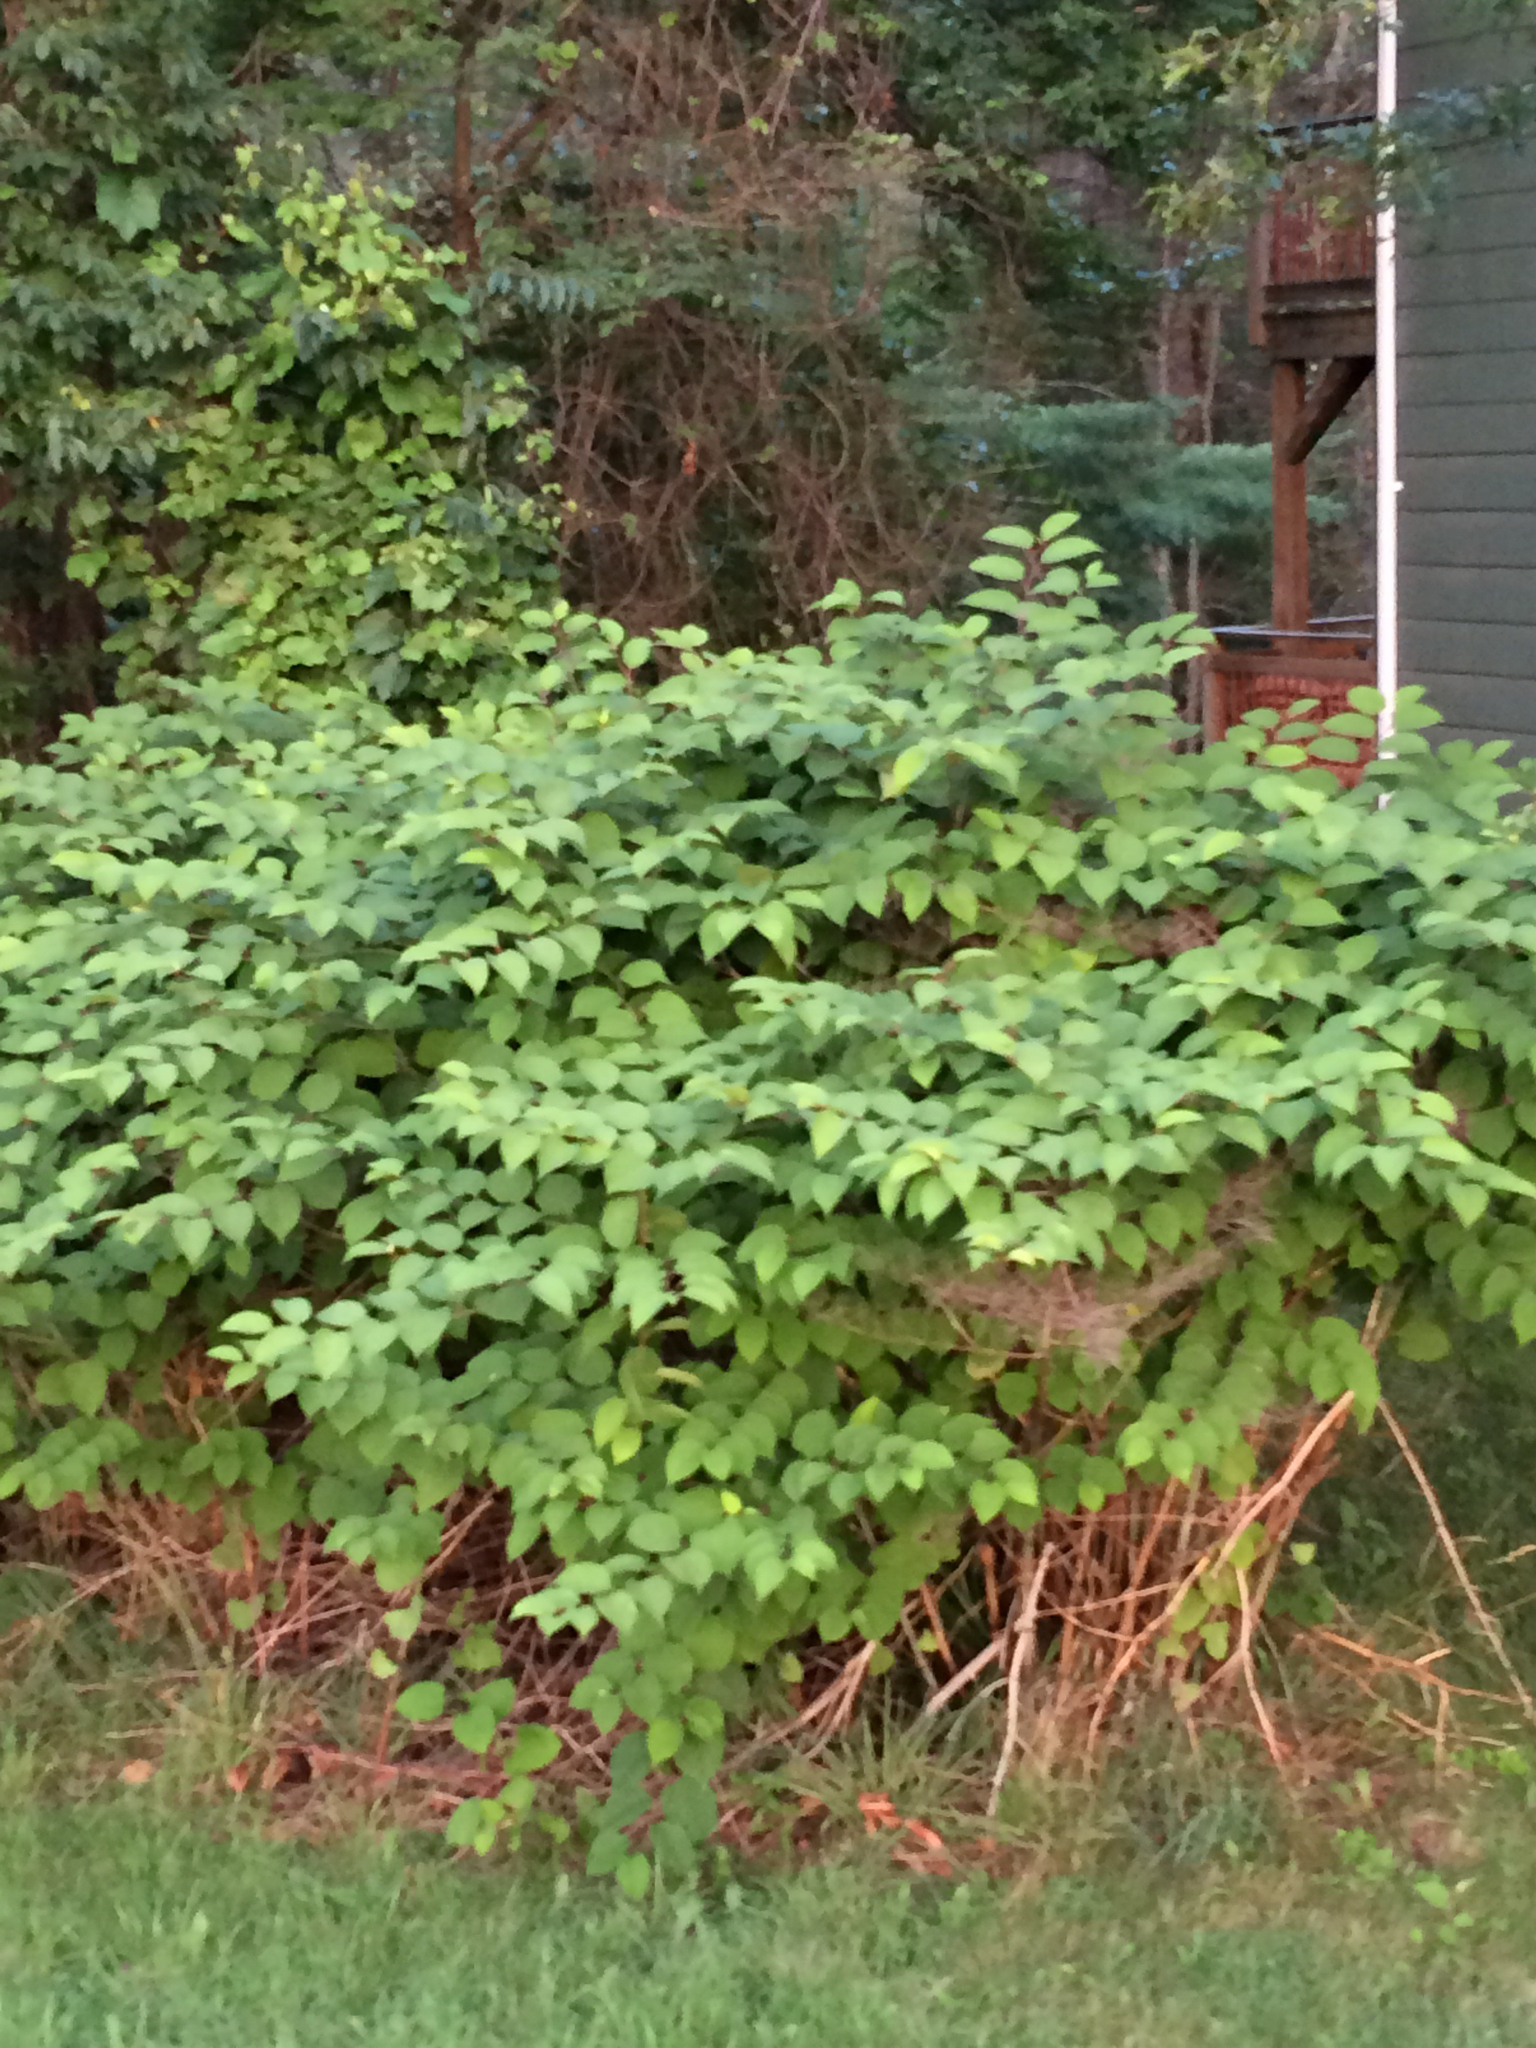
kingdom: Plantae
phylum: Tracheophyta
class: Magnoliopsida
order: Caryophyllales
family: Polygonaceae
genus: Reynoutria
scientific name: Reynoutria japonica
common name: Japanese knotweed
